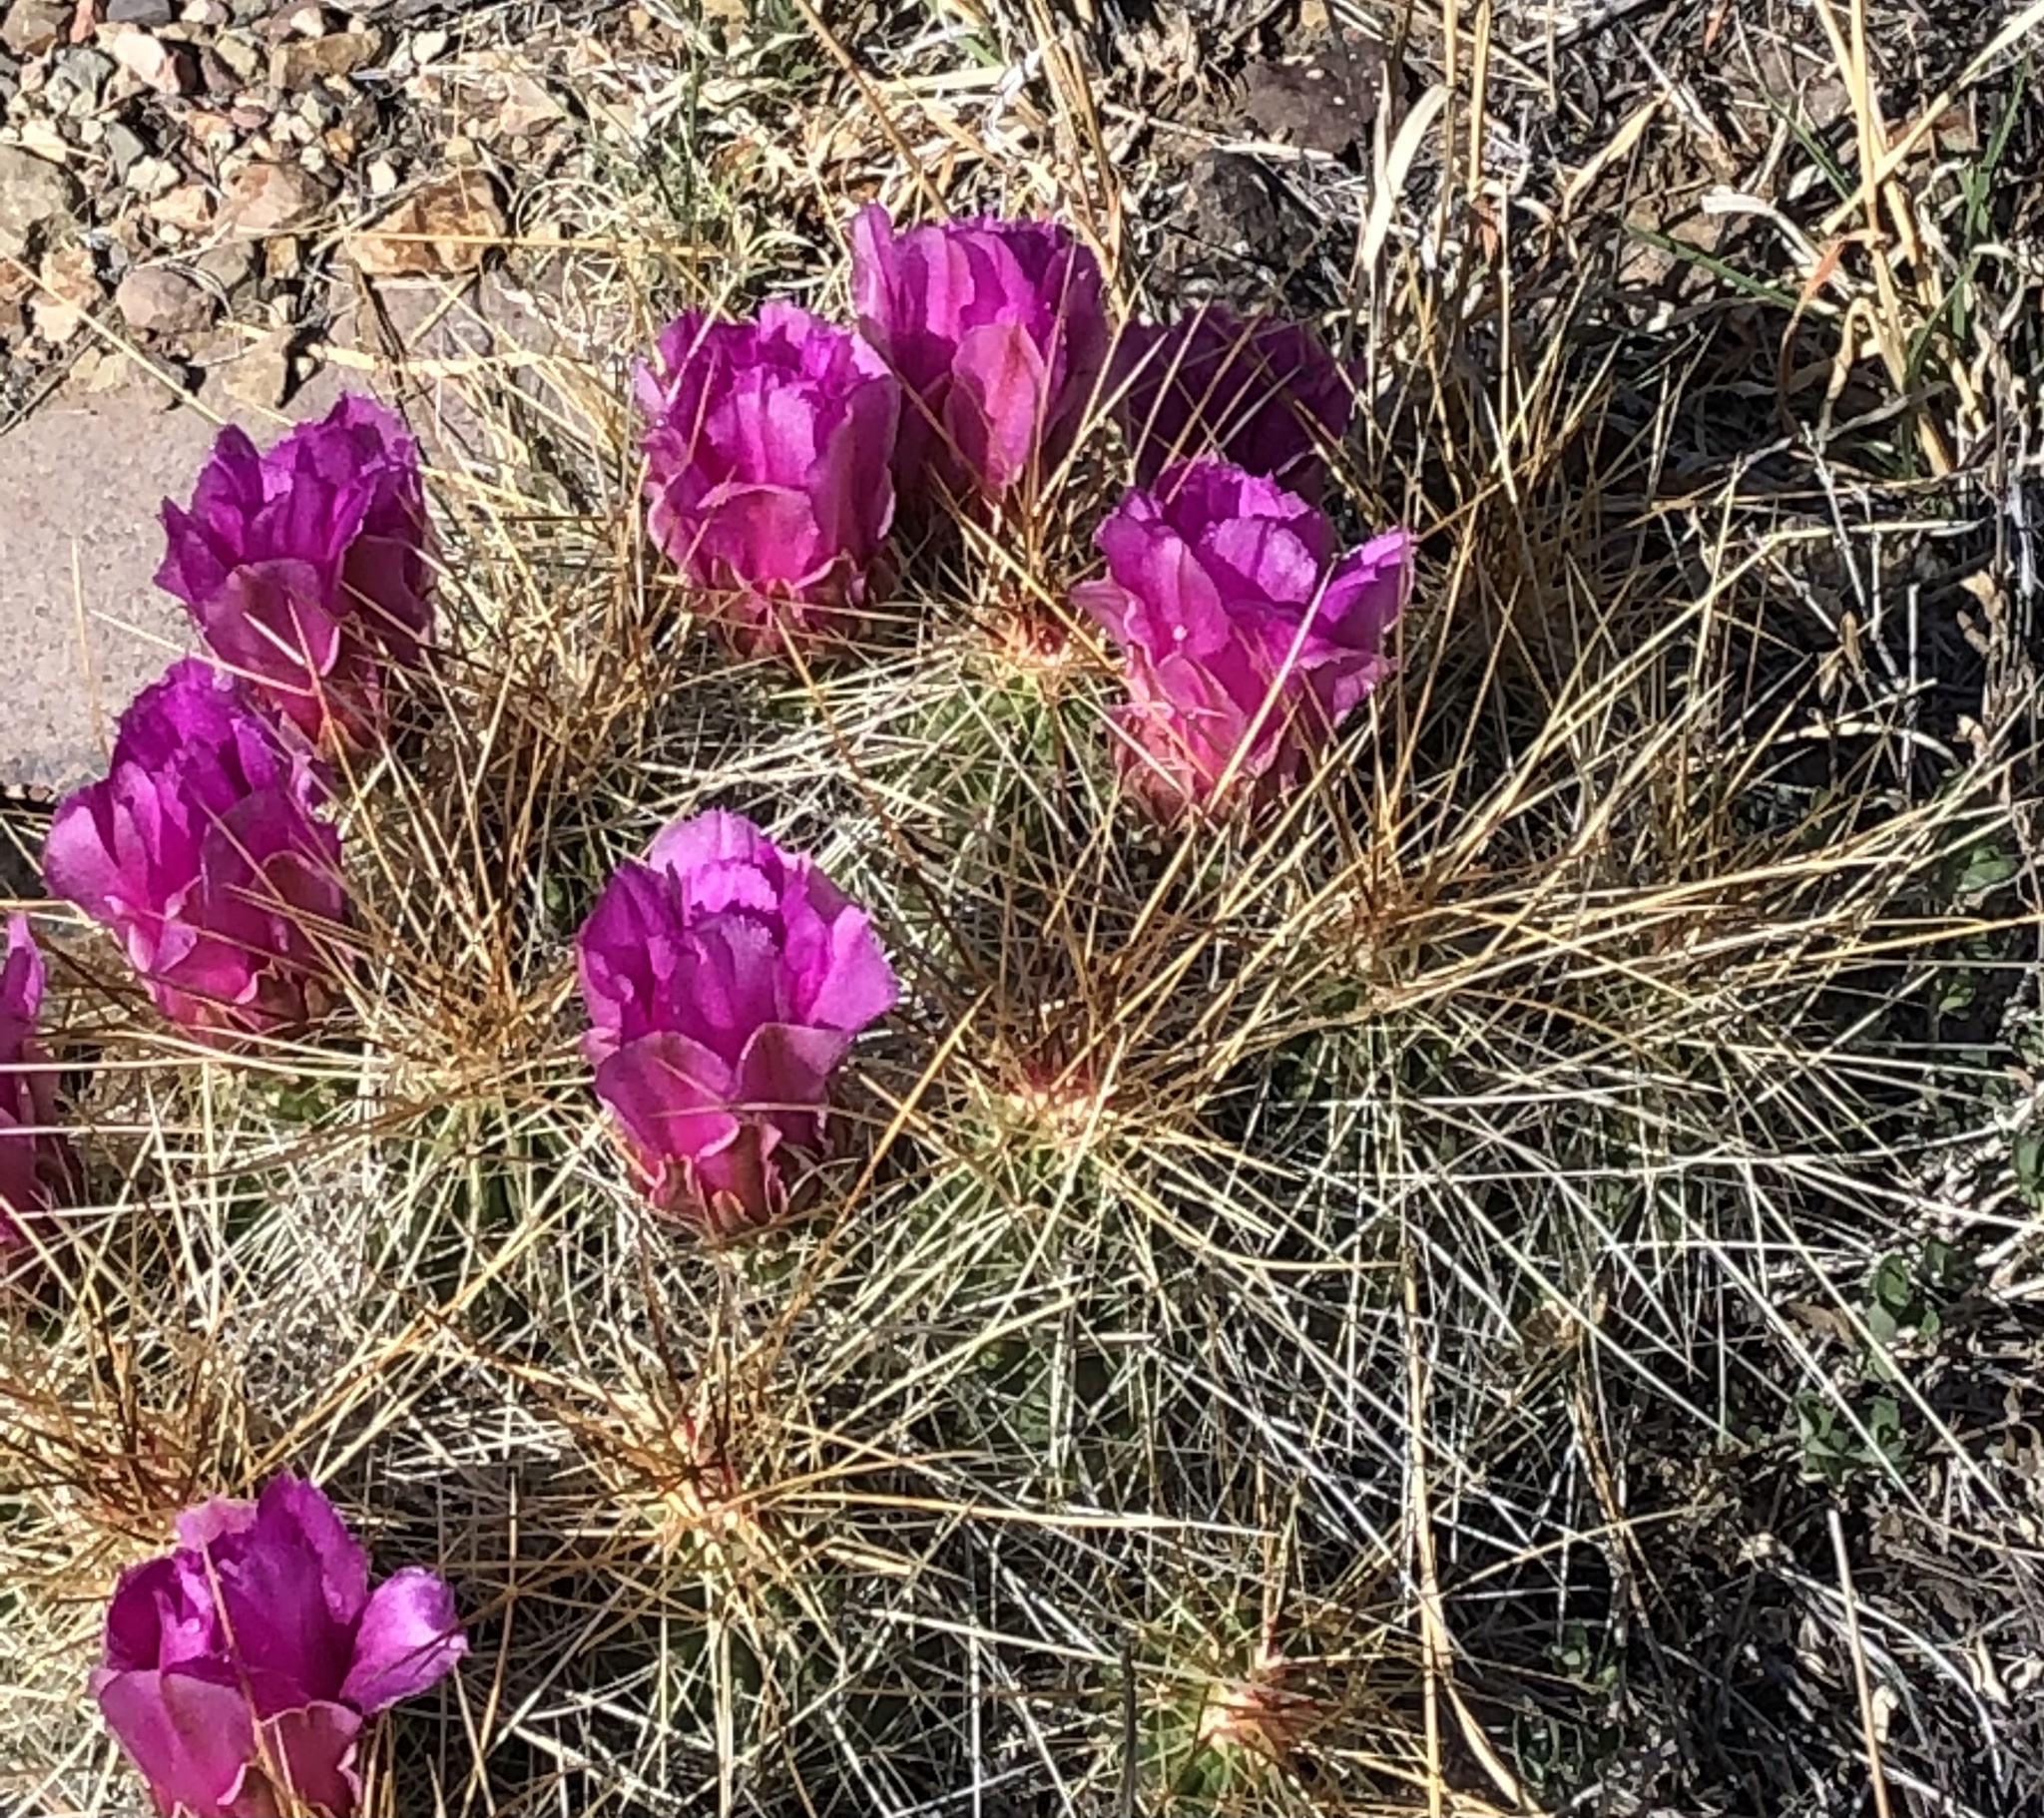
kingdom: Plantae
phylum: Tracheophyta
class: Magnoliopsida
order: Caryophyllales
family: Cactaceae
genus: Echinocereus
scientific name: Echinocereus stramineus
